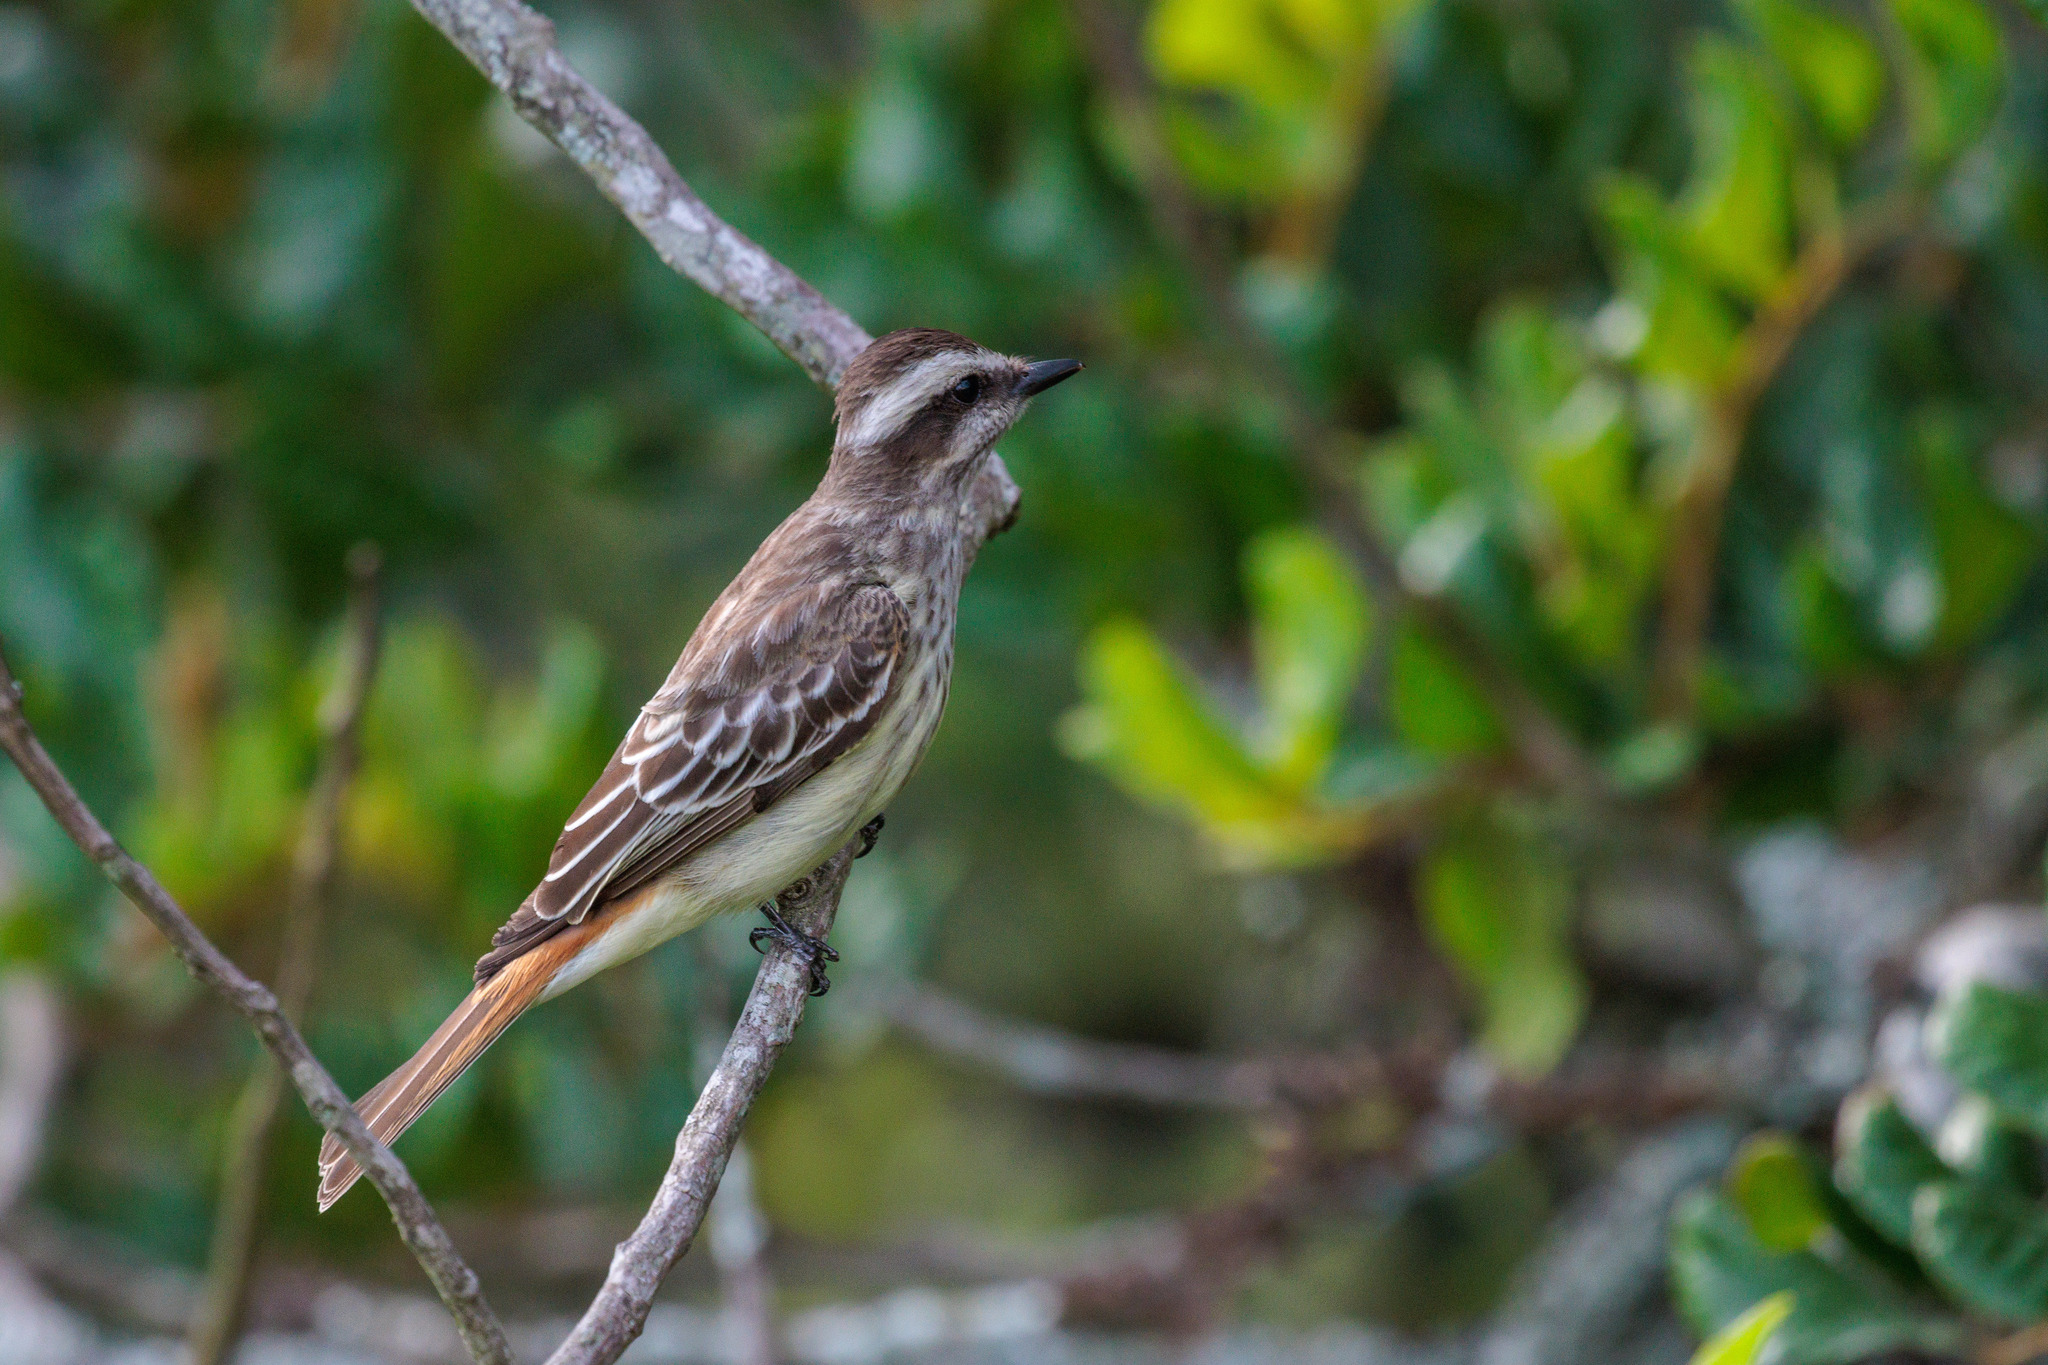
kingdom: Animalia
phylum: Chordata
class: Aves
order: Passeriformes
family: Tyrannidae
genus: Empidonomus
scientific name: Empidonomus varius
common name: Variegated flycatcher
